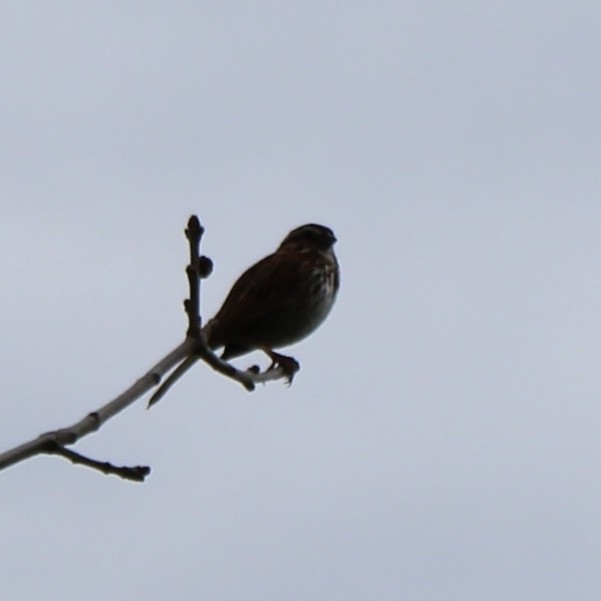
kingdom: Animalia
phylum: Chordata
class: Aves
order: Passeriformes
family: Passerellidae
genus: Melospiza
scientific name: Melospiza melodia
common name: Song sparrow
